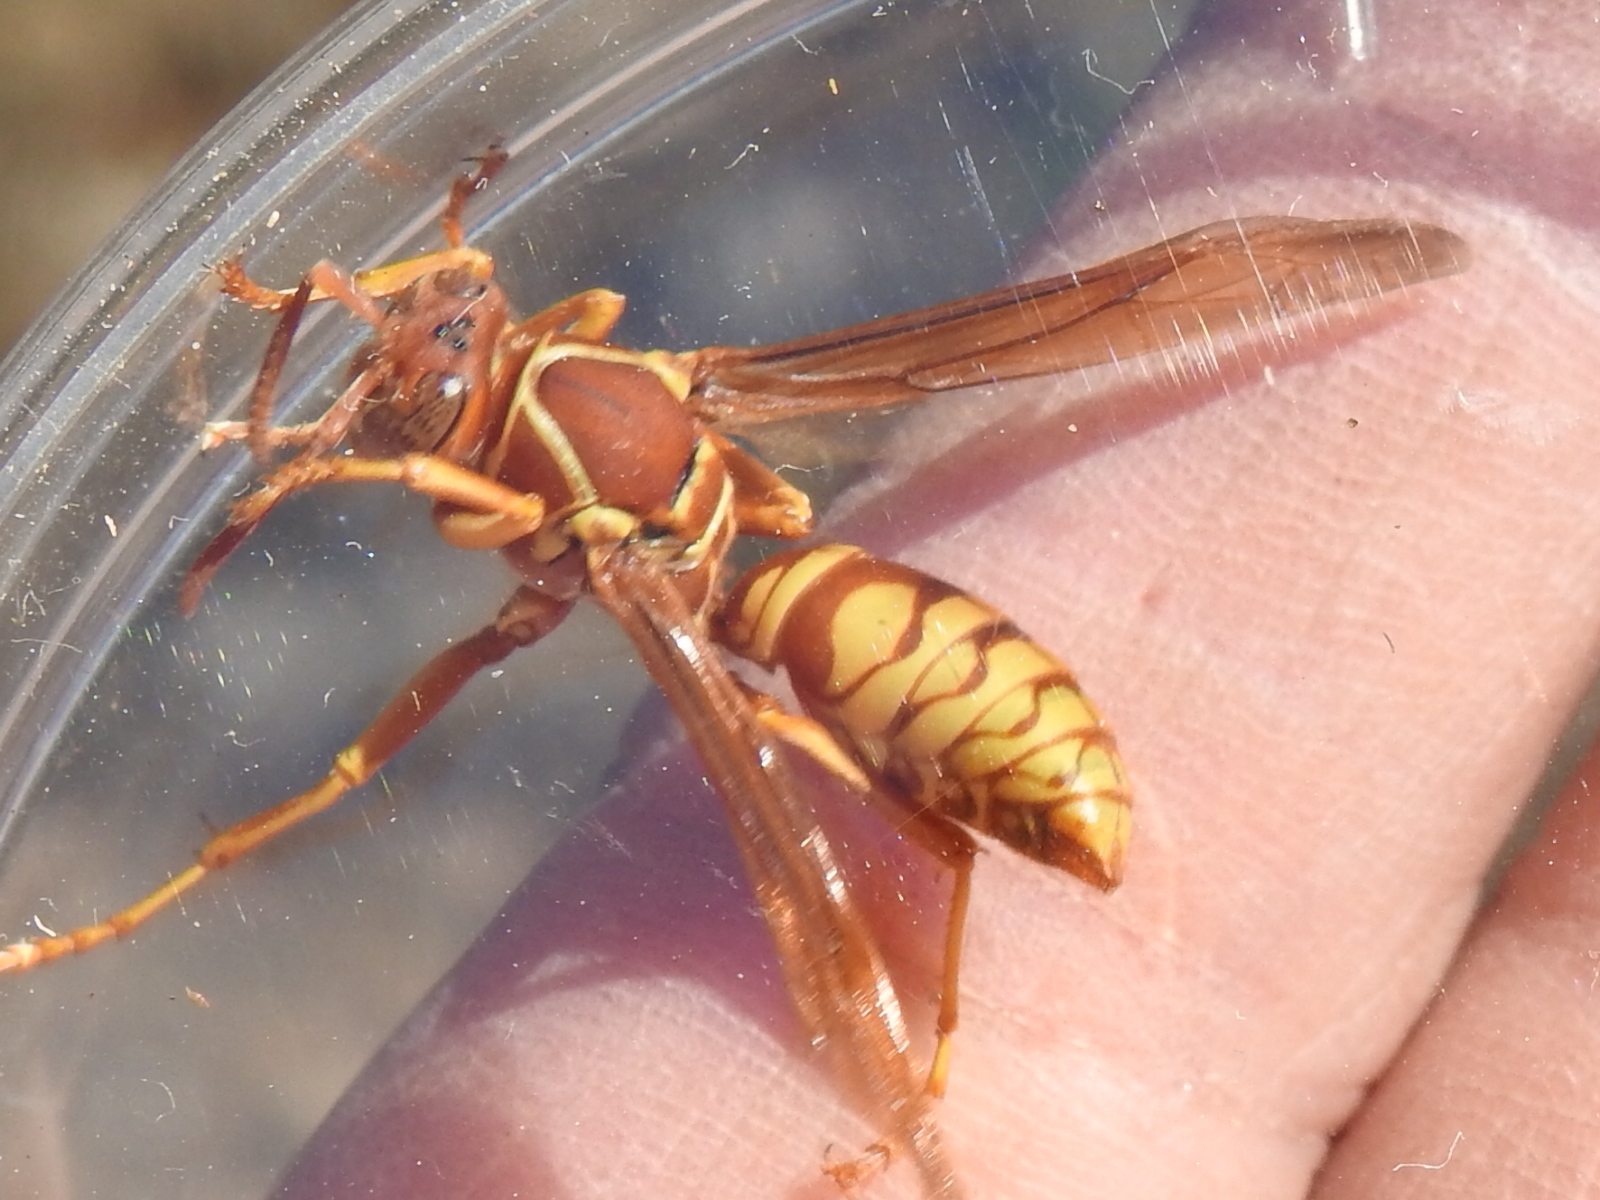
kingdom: Animalia
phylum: Arthropoda
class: Insecta
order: Hymenoptera
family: Eumenidae
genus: Polistes
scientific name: Polistes apachus
